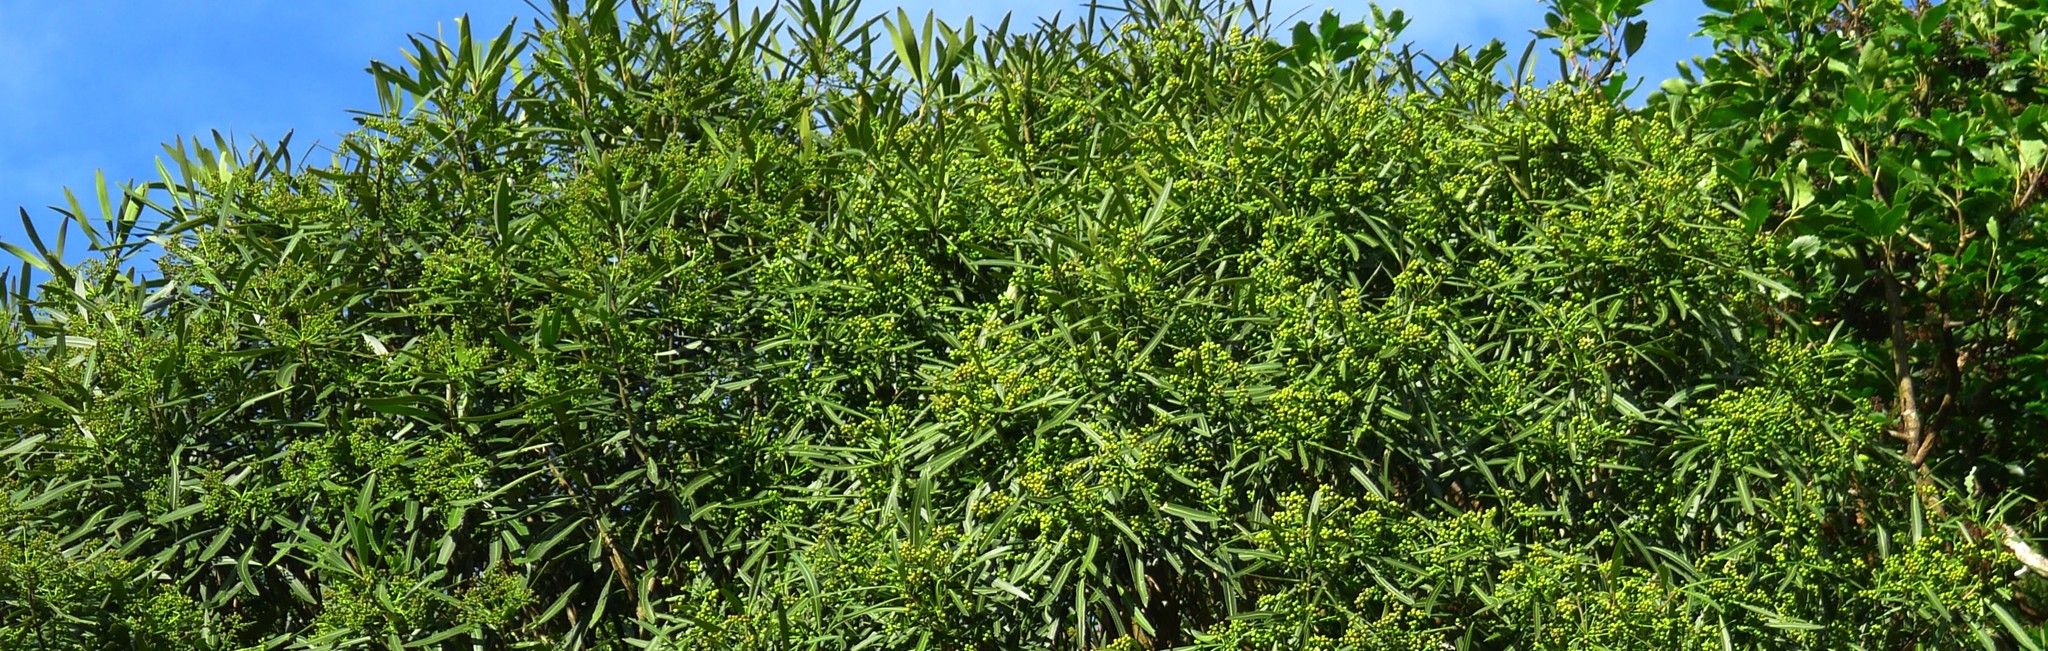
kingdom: Plantae
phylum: Tracheophyta
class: Magnoliopsida
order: Apiales
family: Araliaceae
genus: Pseudopanax
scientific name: Pseudopanax crassifolius
